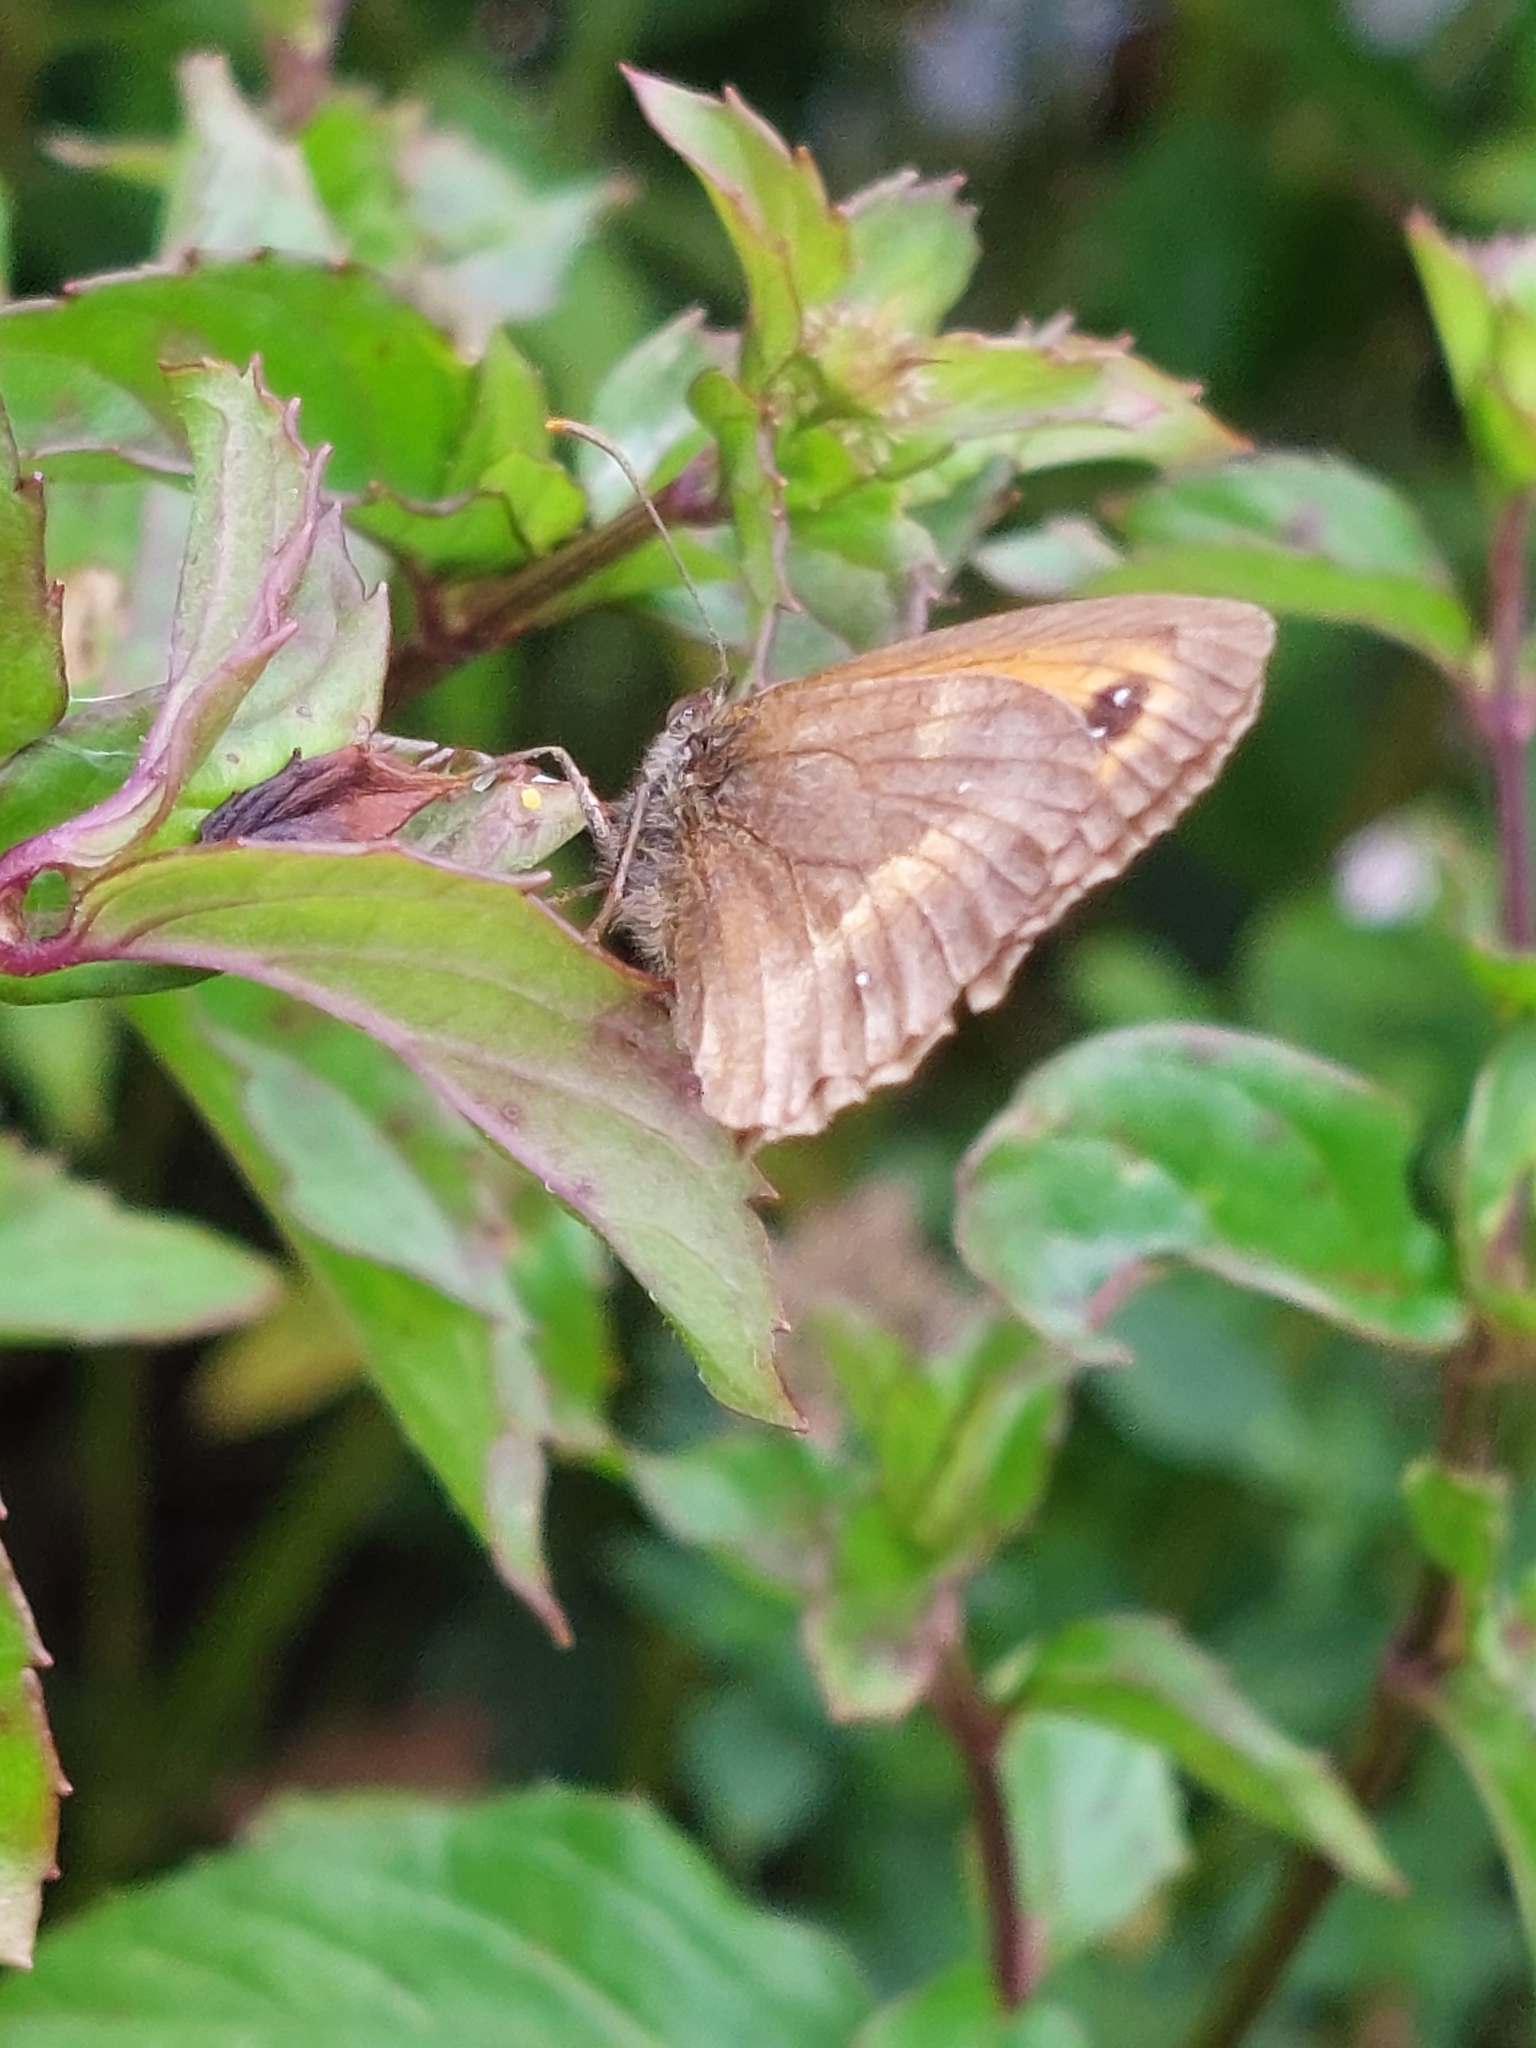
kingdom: Animalia
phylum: Arthropoda
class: Insecta
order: Lepidoptera
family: Nymphalidae
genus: Pyronia
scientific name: Pyronia tithonus
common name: Gatekeeper
